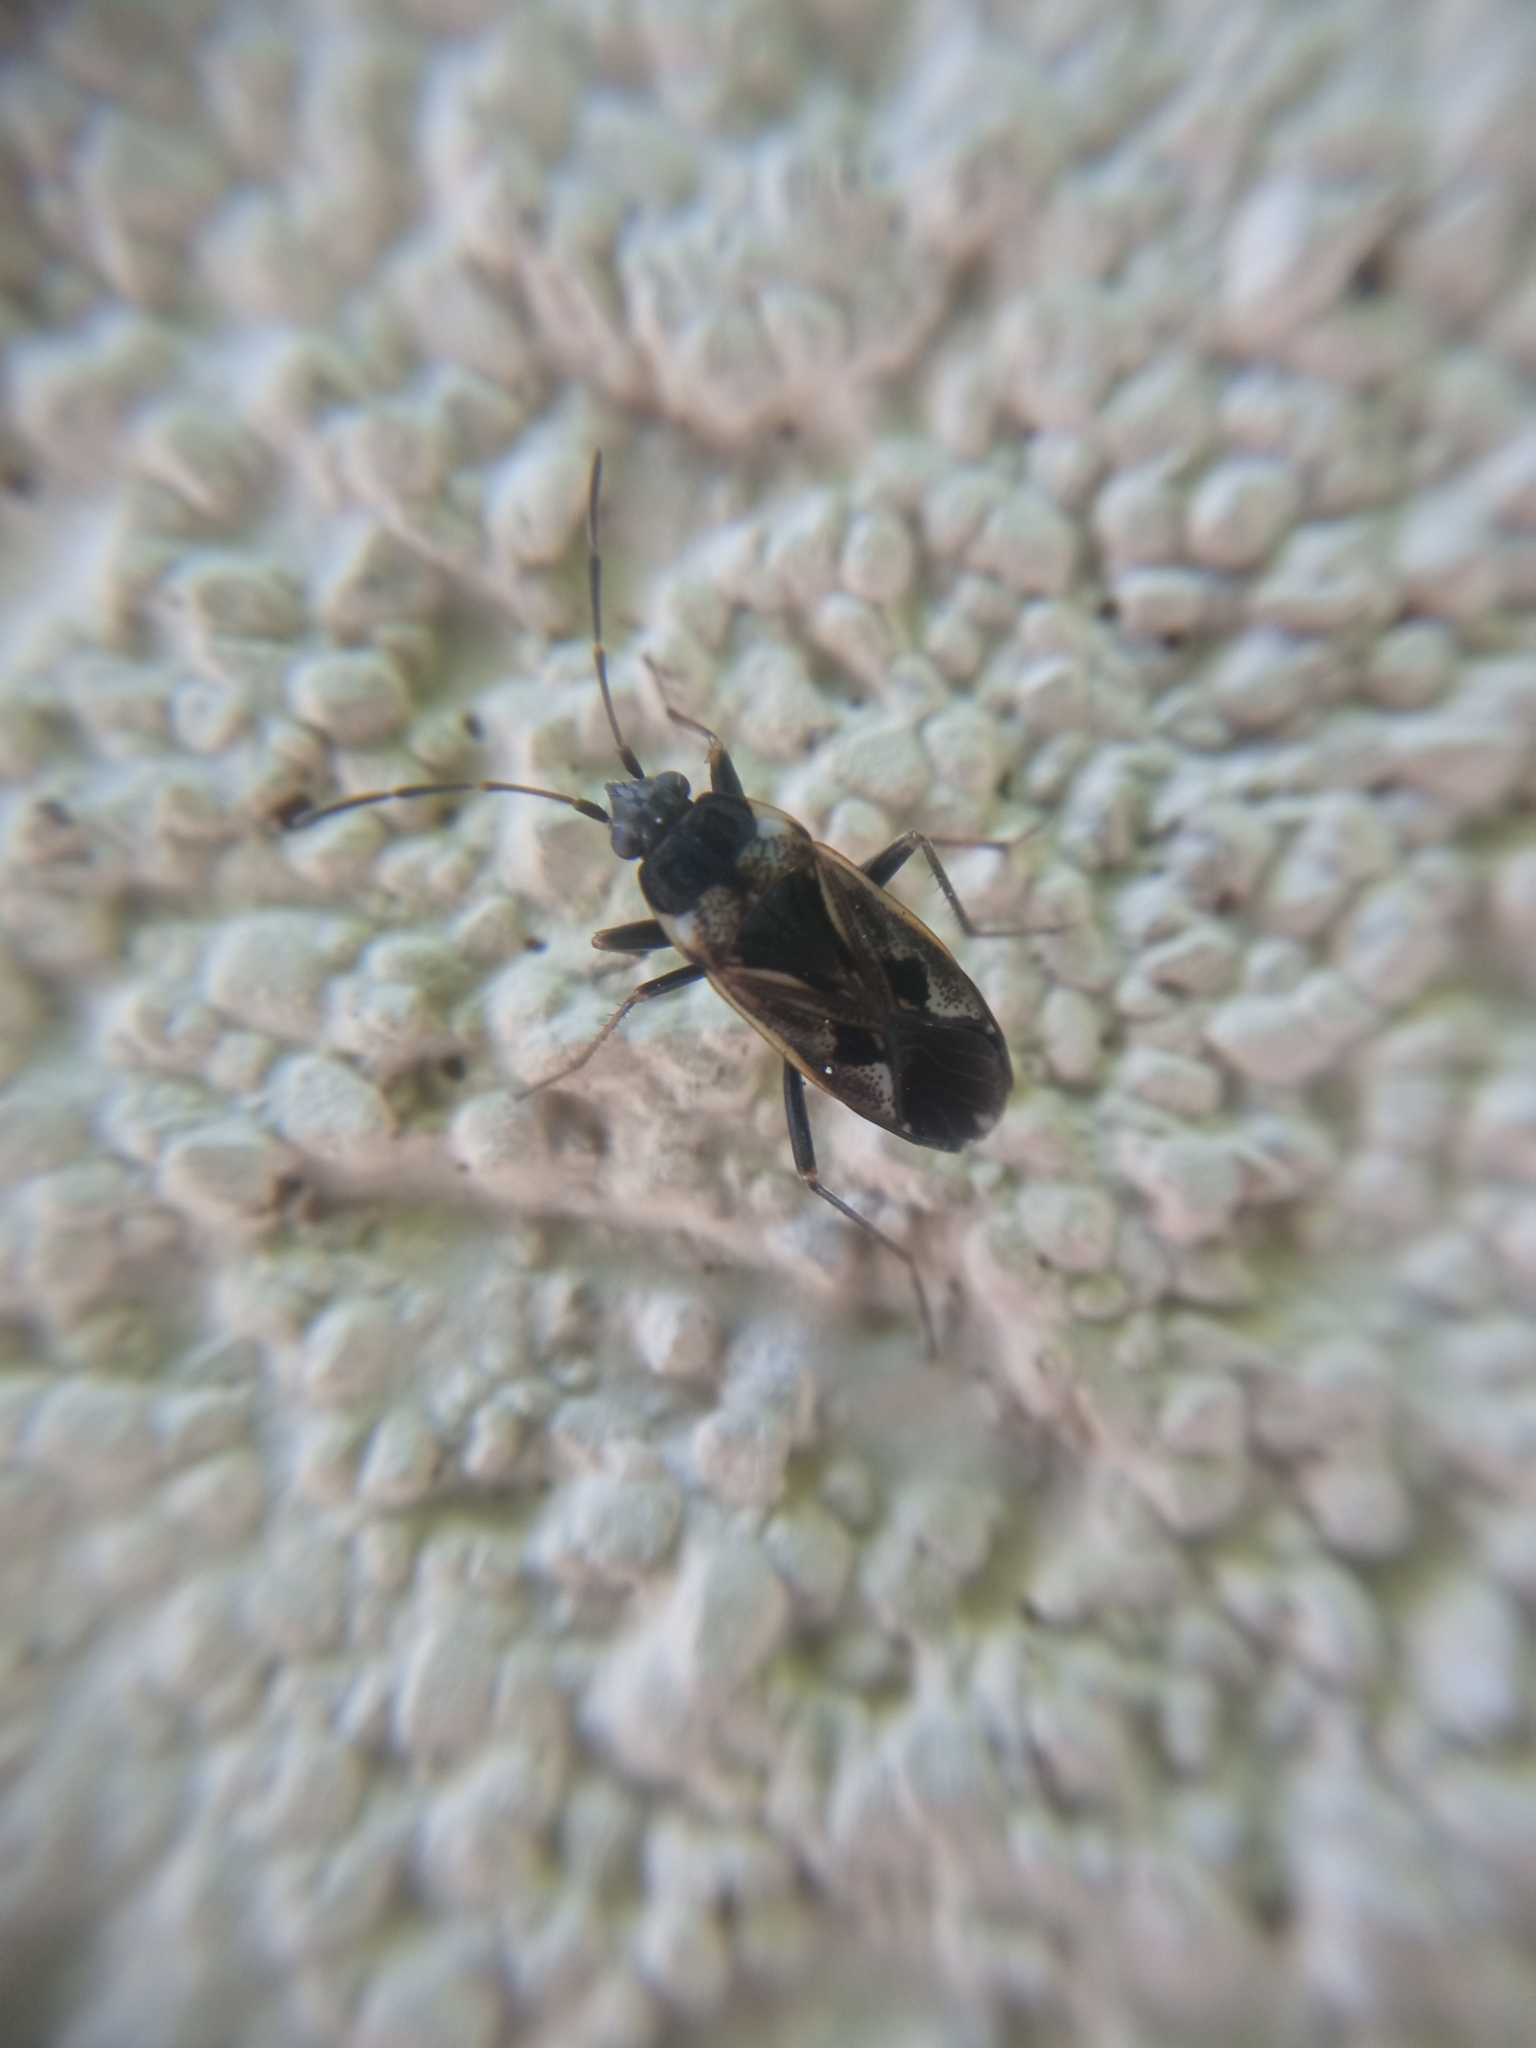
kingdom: Animalia
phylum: Arthropoda
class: Insecta
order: Hemiptera
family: Rhyparochromidae
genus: Rhyparochromus
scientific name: Rhyparochromus vulgaris
